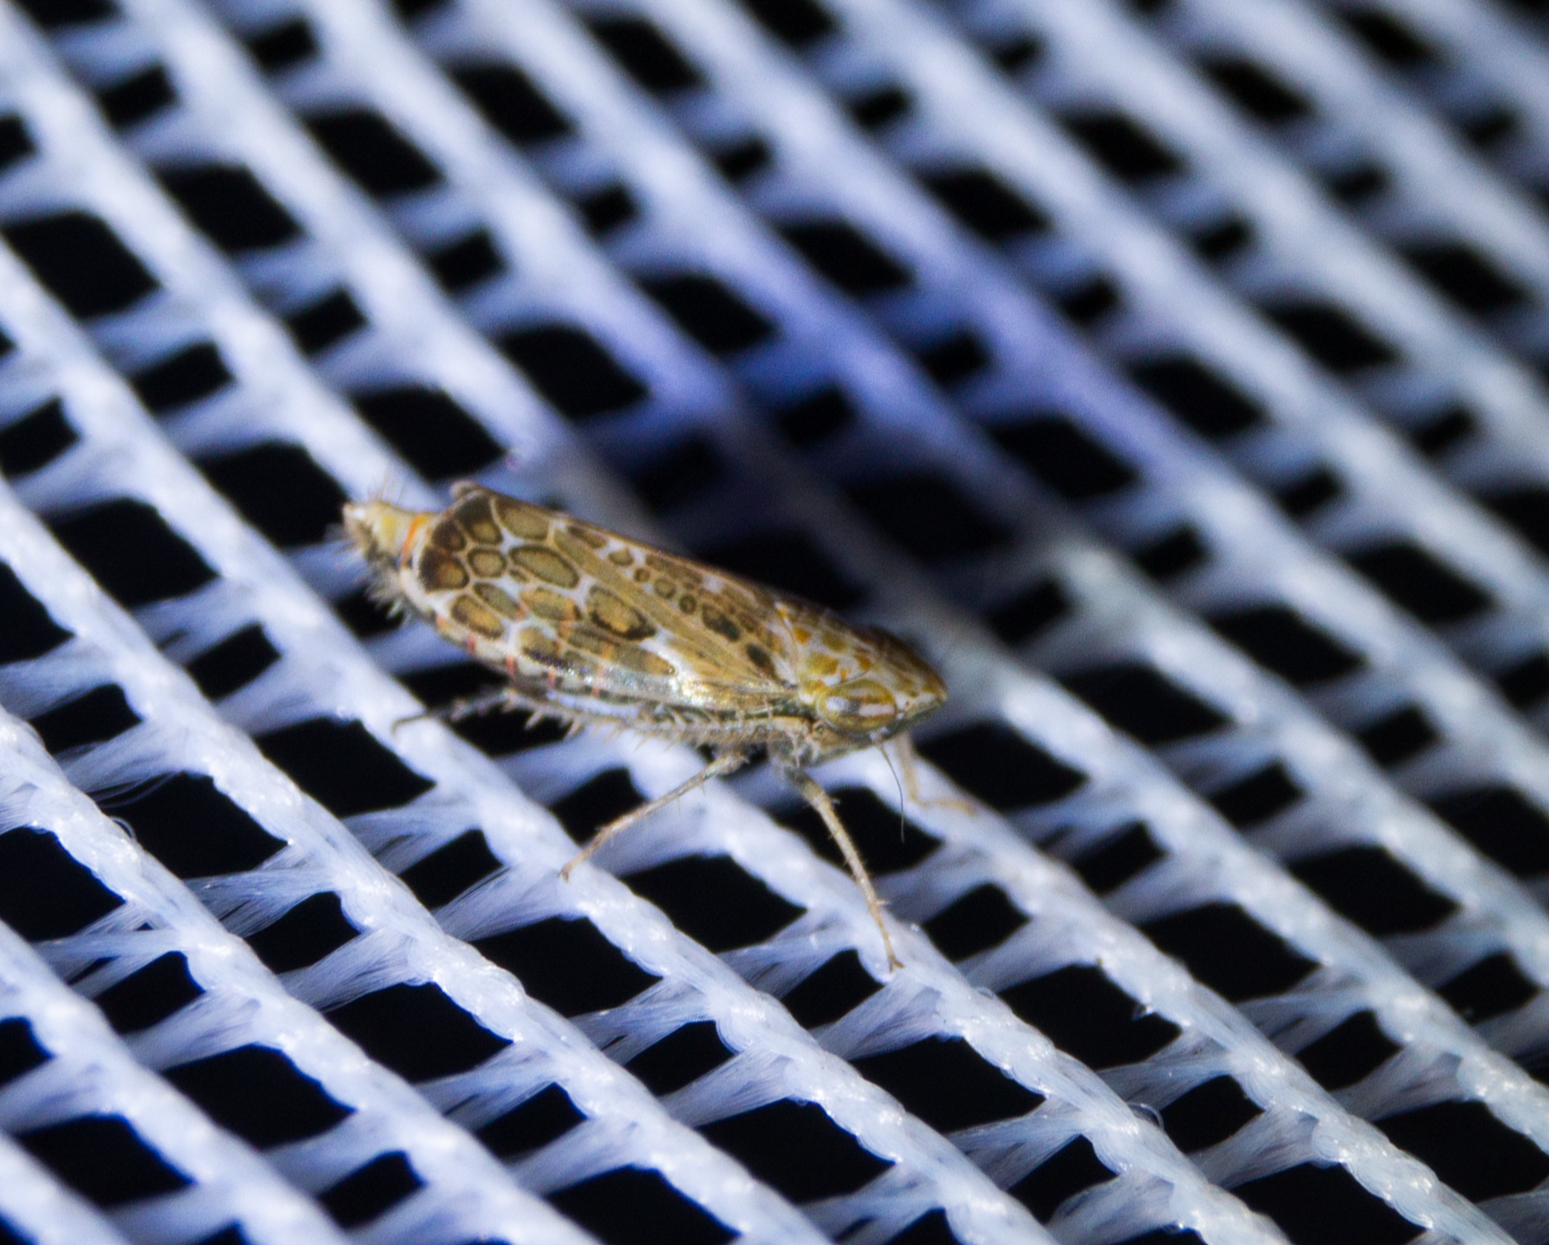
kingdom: Animalia
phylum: Arthropoda
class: Insecta
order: Hemiptera
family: Cicadellidae
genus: Errastunus
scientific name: Errastunus ocellaris
